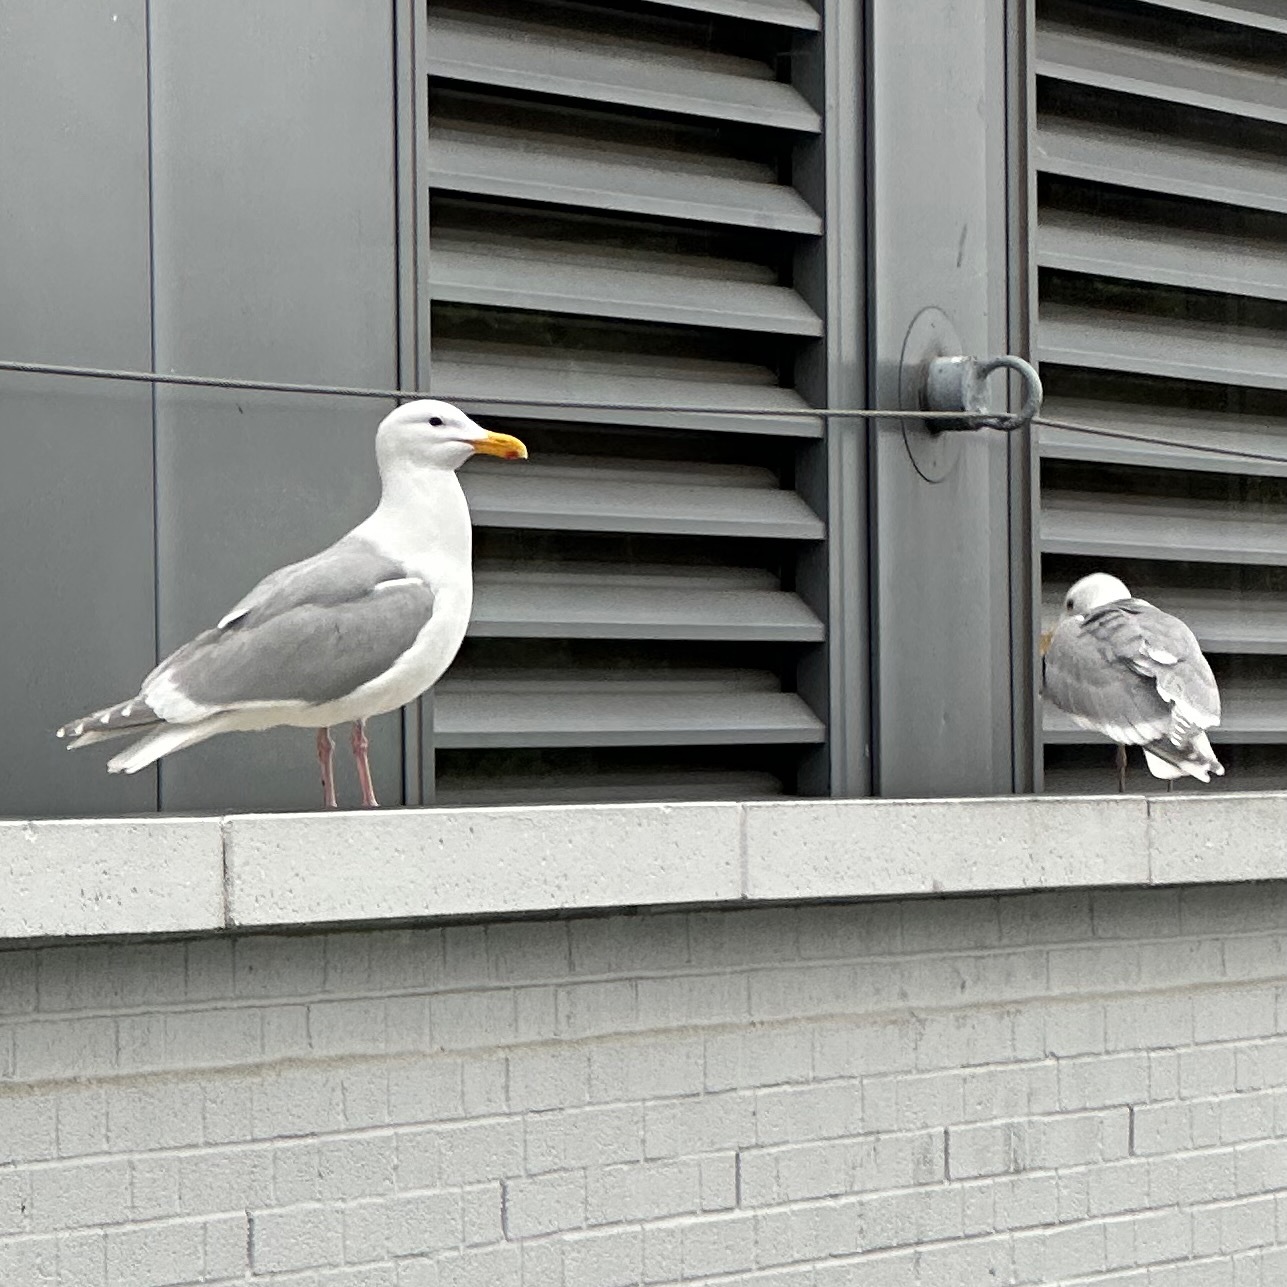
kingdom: Animalia
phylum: Chordata
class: Aves
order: Charadriiformes
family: Laridae
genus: Larus
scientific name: Larus glaucescens
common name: Glaucous-winged gull
